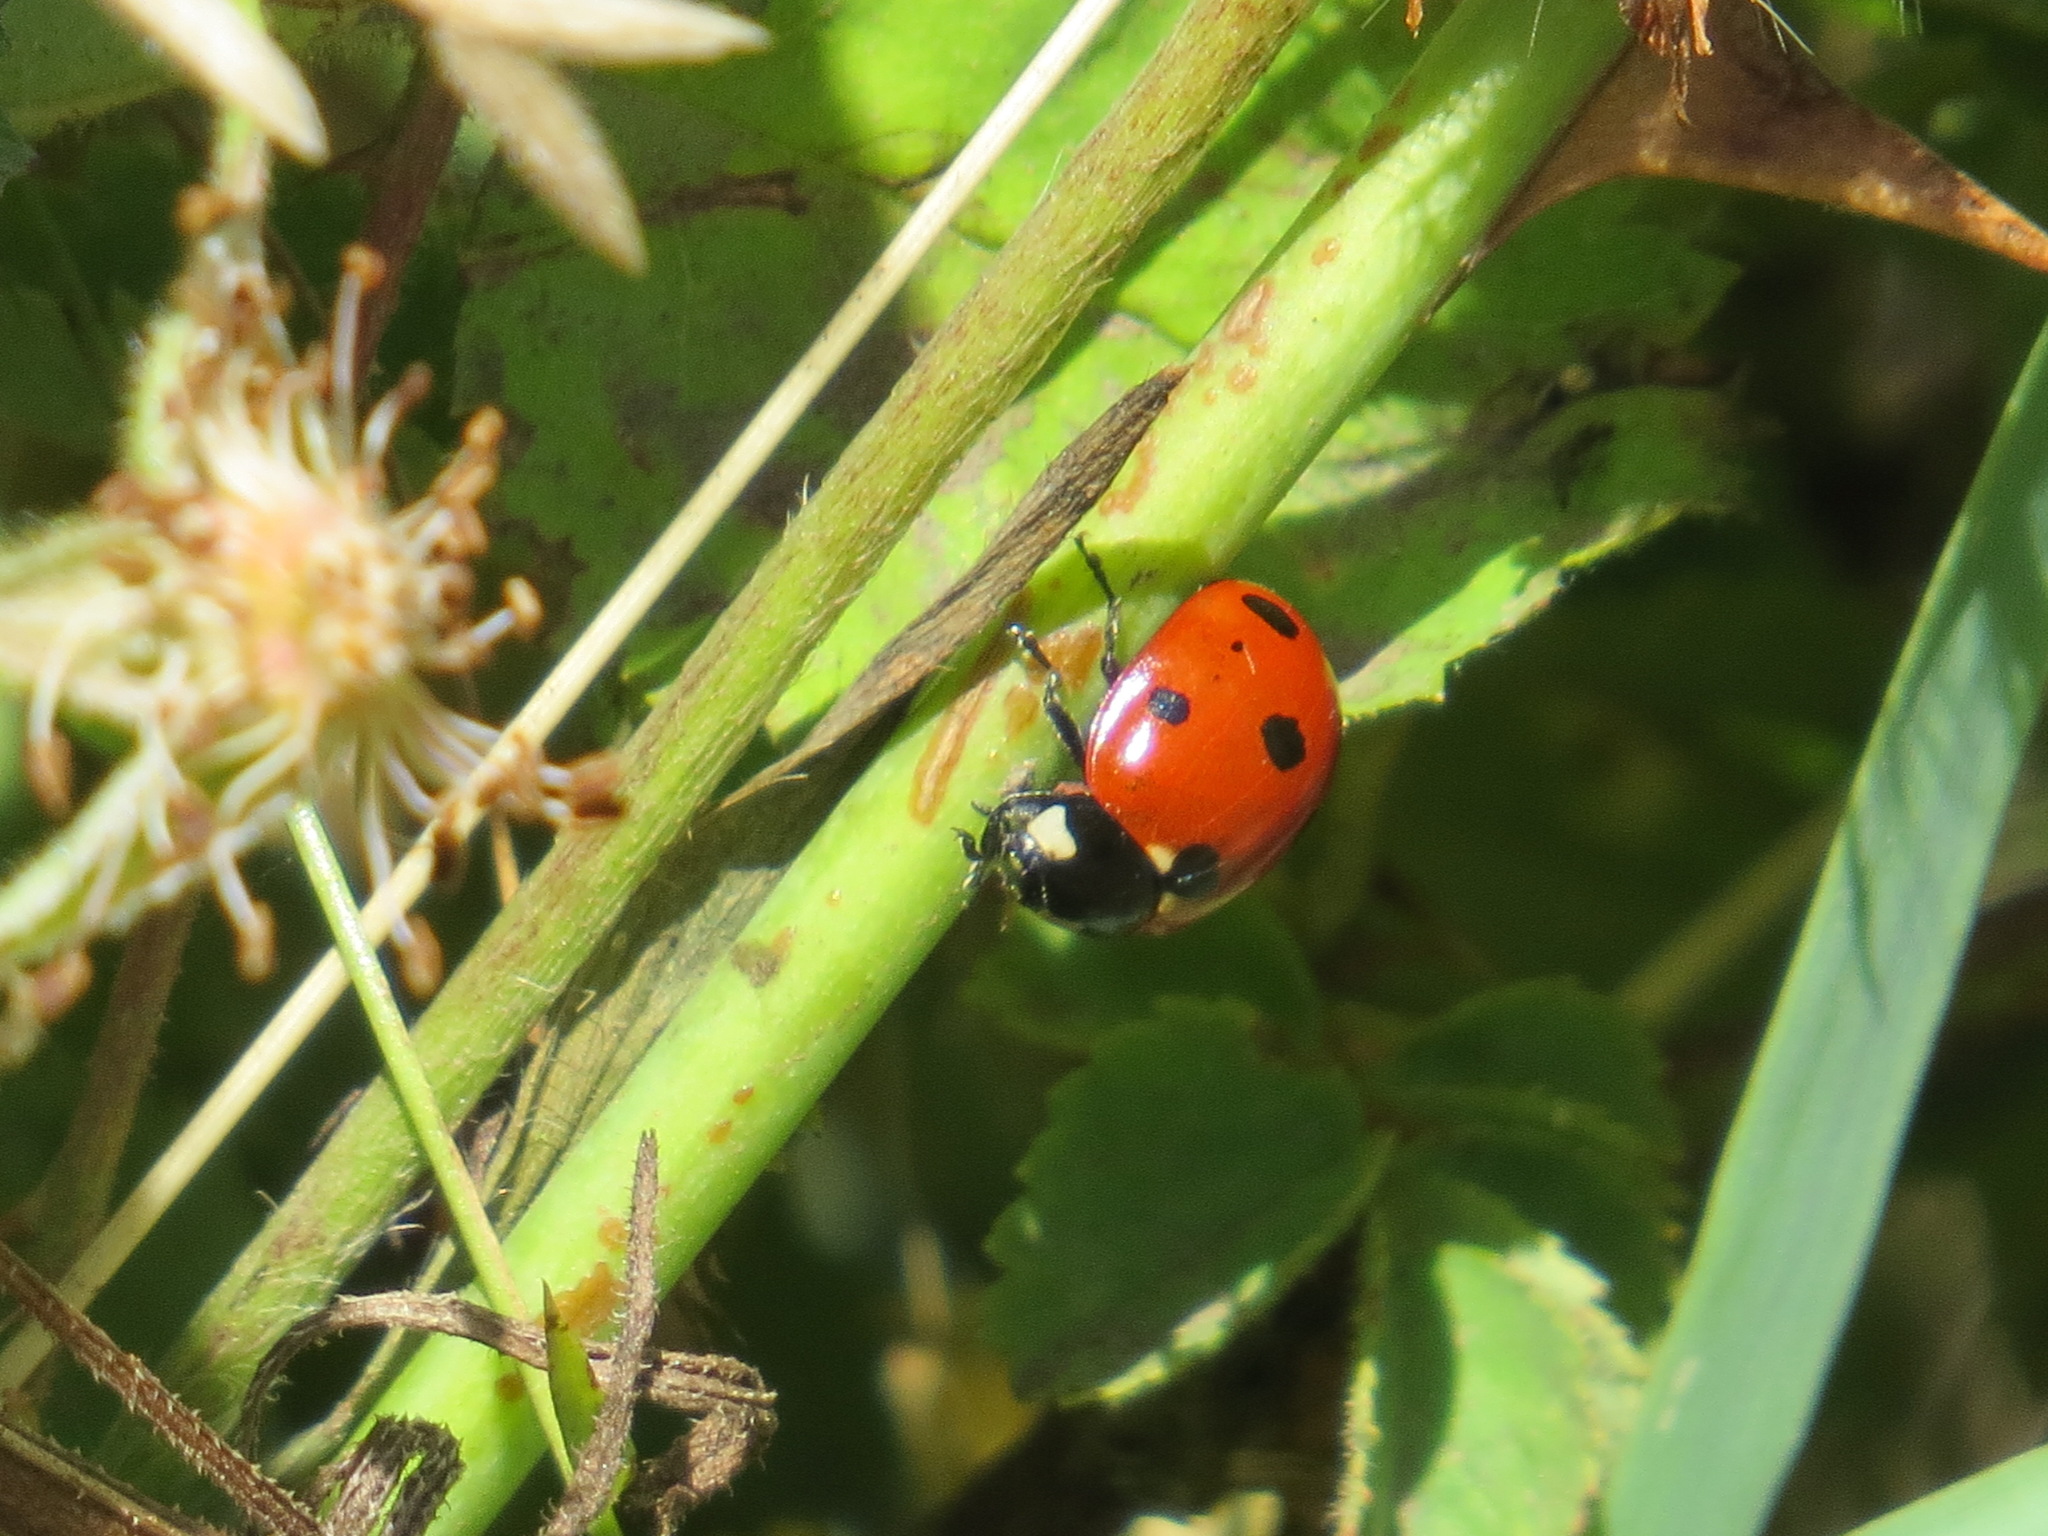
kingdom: Animalia
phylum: Arthropoda
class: Insecta
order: Coleoptera
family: Coccinellidae
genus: Coccinella
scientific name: Coccinella septempunctata
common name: Sevenspotted lady beetle
